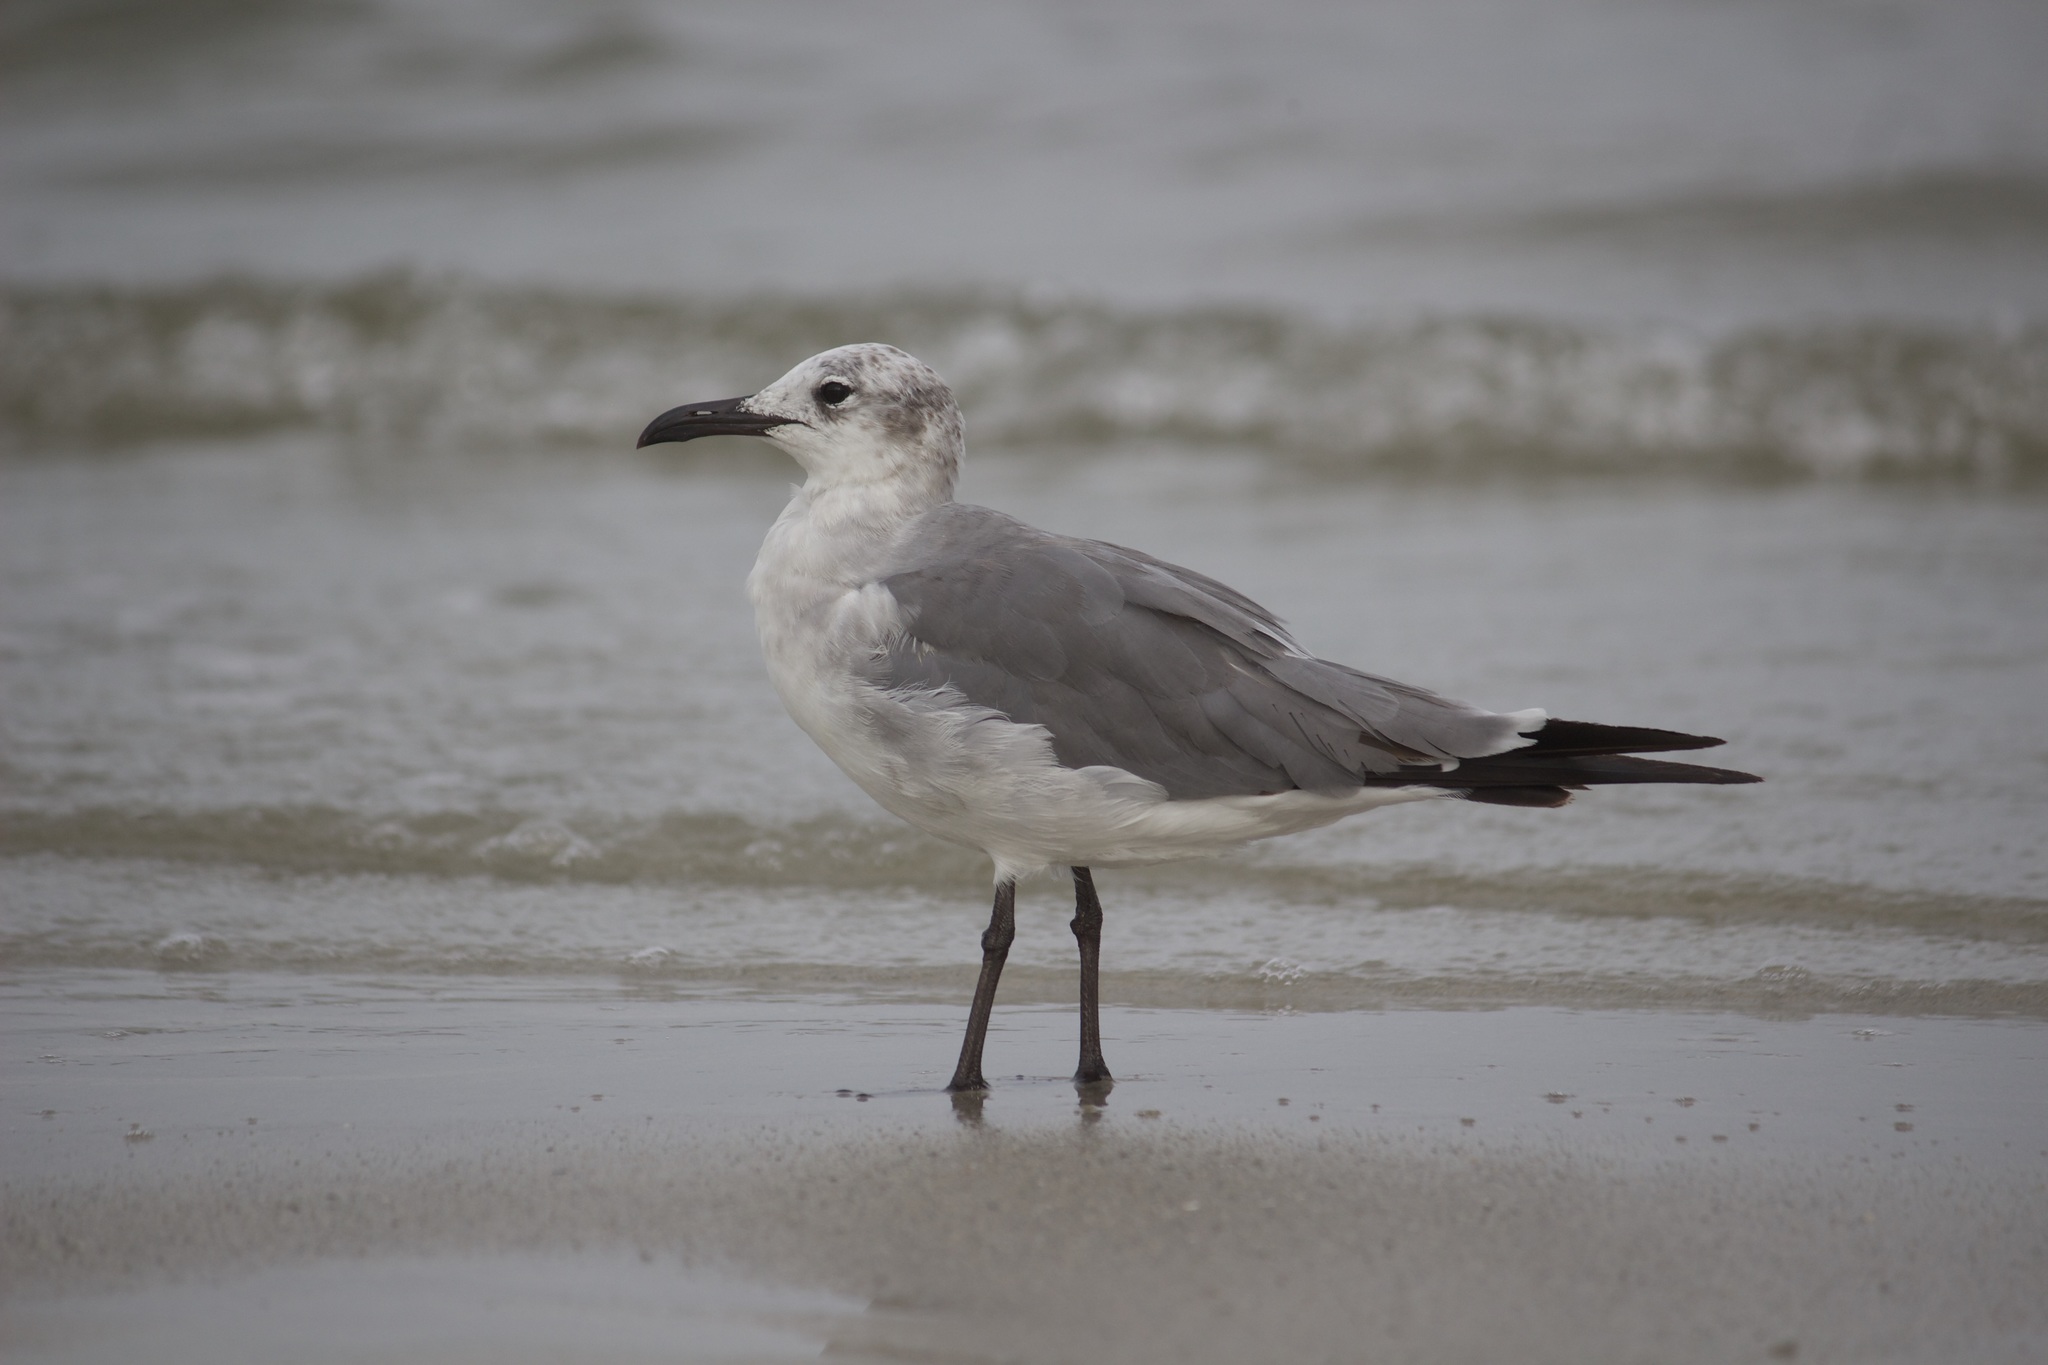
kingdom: Animalia
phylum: Chordata
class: Aves
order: Charadriiformes
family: Laridae
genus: Leucophaeus
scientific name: Leucophaeus atricilla
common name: Laughing gull
